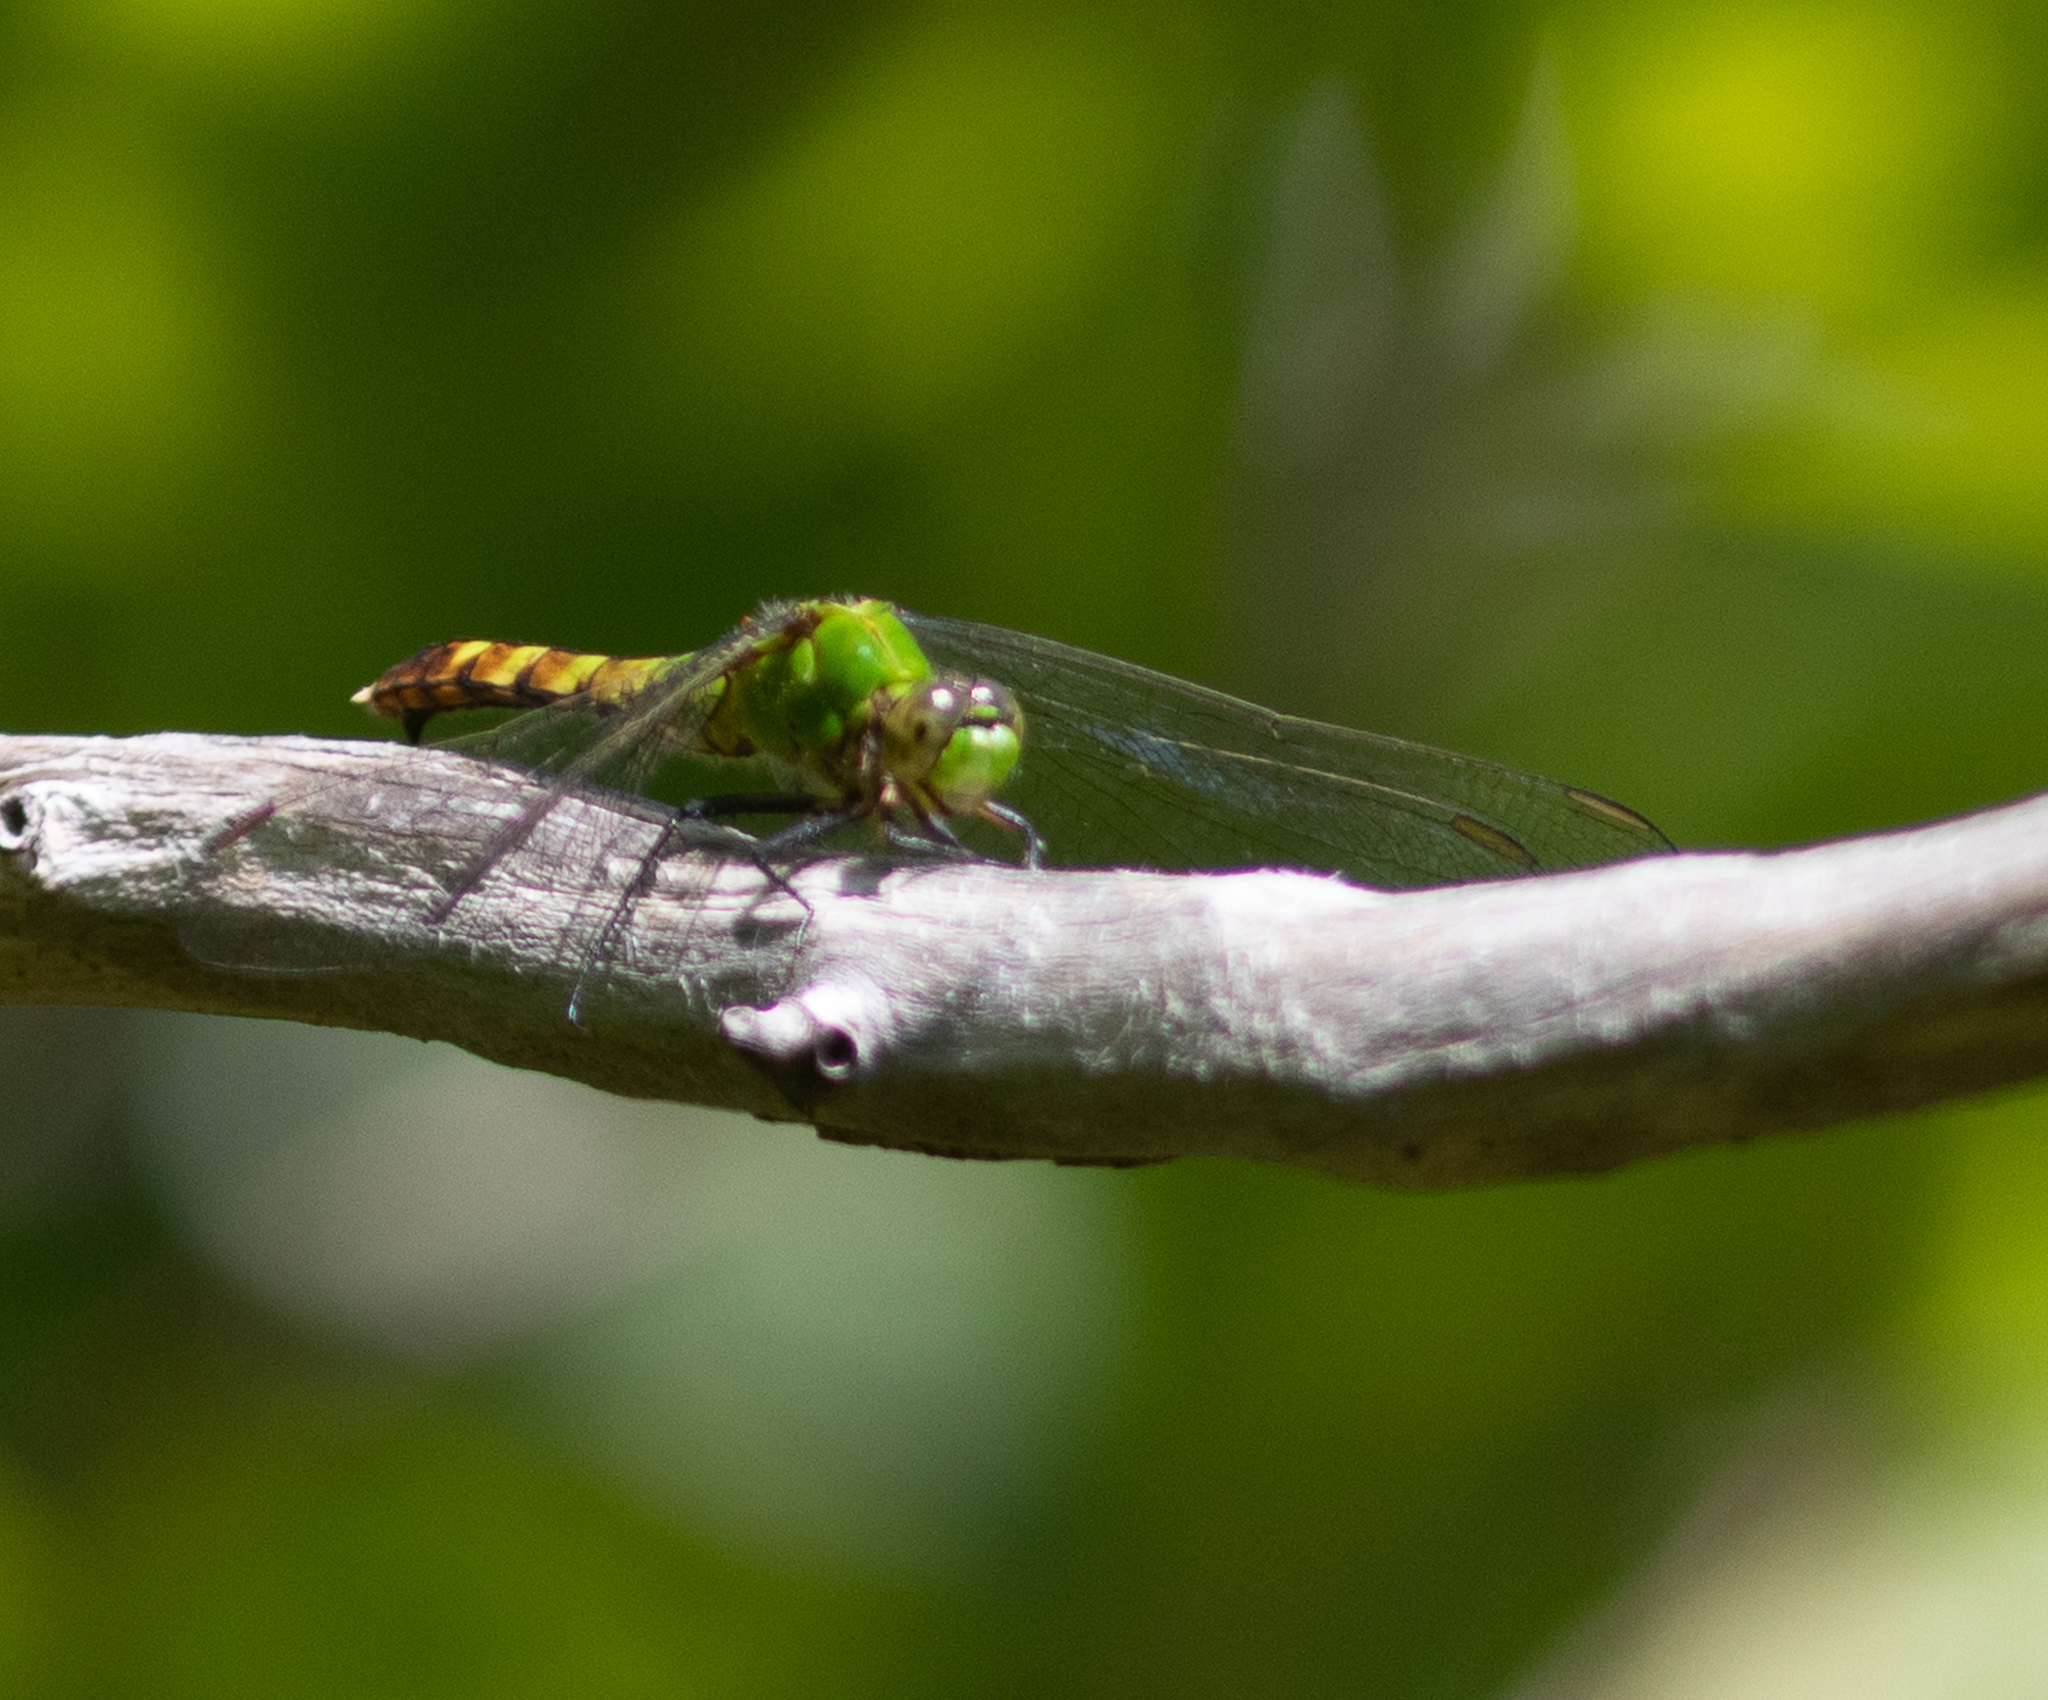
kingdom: Animalia
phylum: Arthropoda
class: Insecta
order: Odonata
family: Libellulidae
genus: Erythemis
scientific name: Erythemis simplicicollis
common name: Eastern pondhawk
